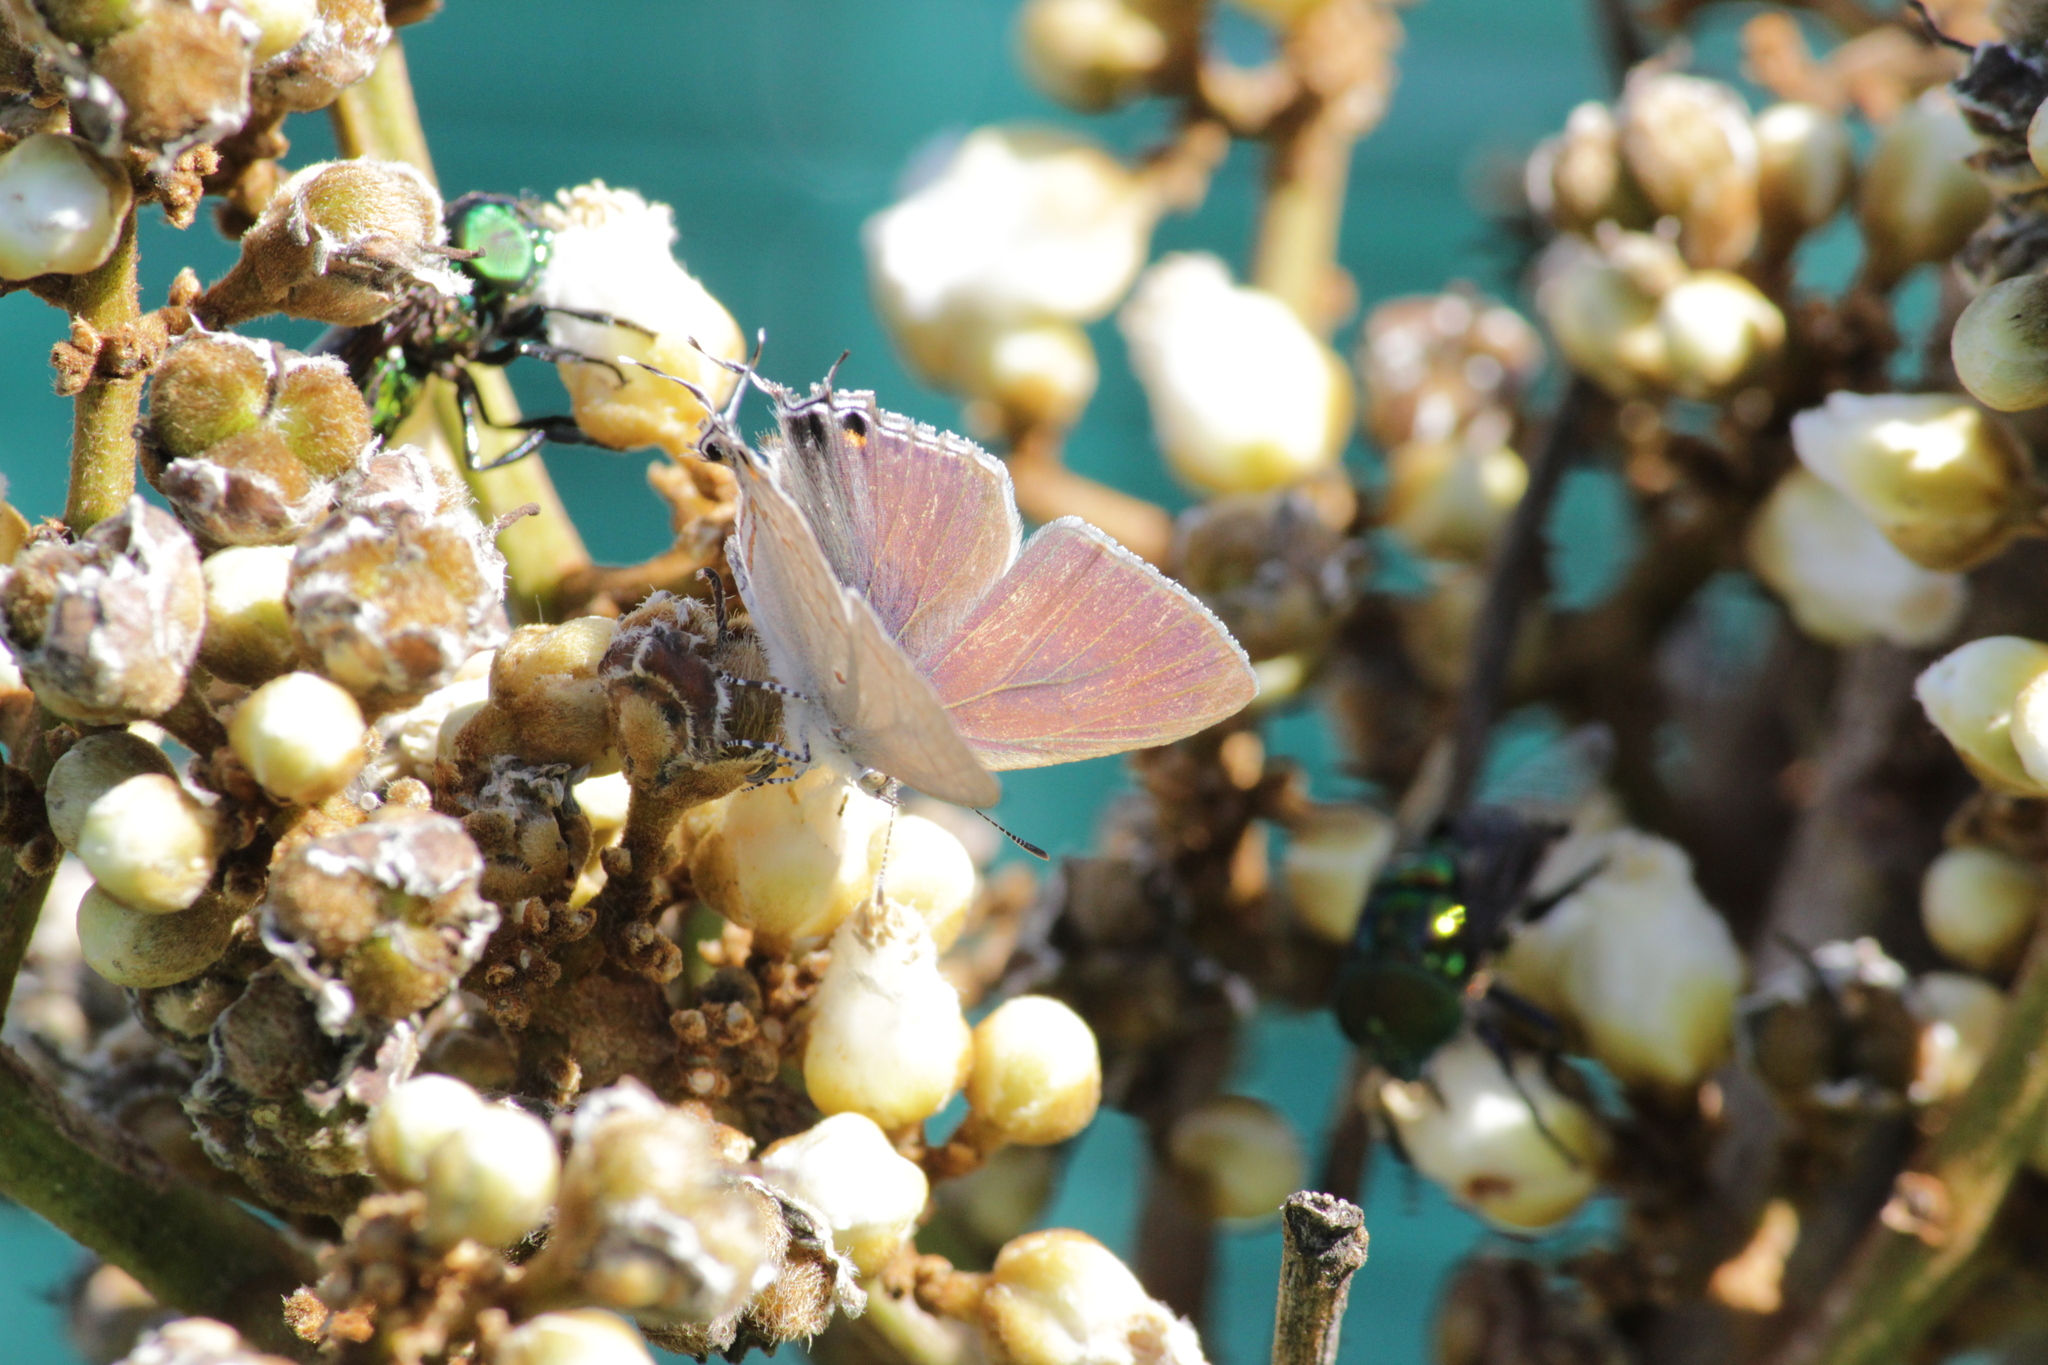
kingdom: Animalia
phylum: Arthropoda
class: Insecta
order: Lepidoptera
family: Lycaenidae
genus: Hypolycaena
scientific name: Hypolycaena philippus
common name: Common hairstreak
